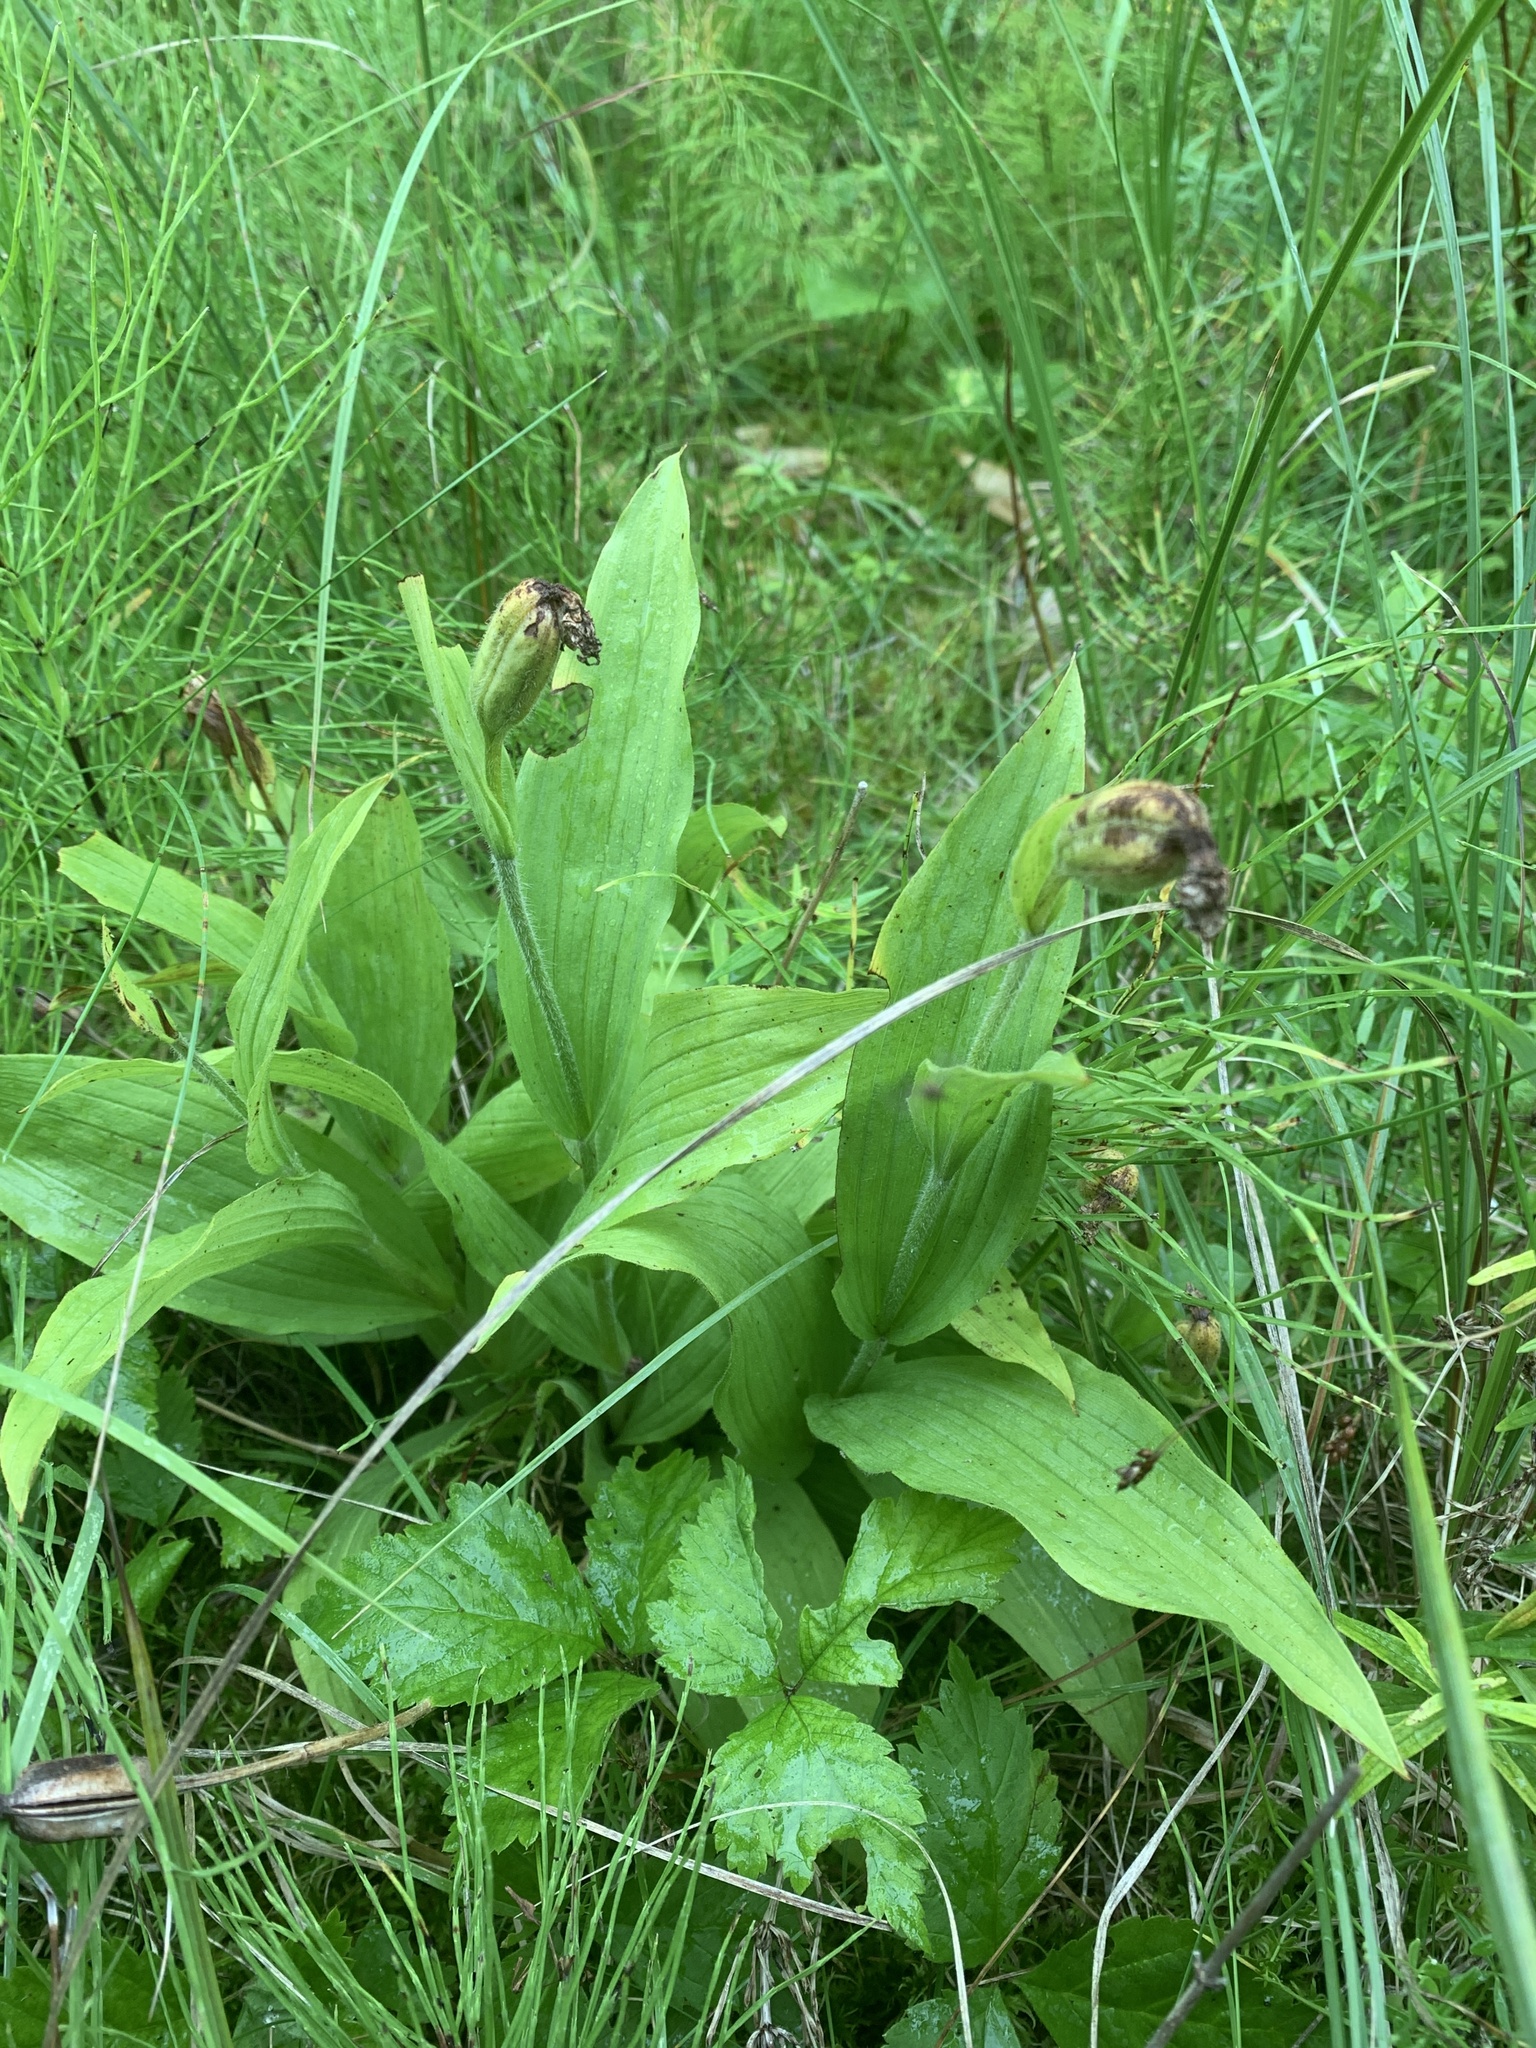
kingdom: Plantae
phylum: Tracheophyta
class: Liliopsida
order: Asparagales
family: Orchidaceae
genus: Cypripedium
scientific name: Cypripedium parviflorum
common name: American yellow lady's-slipper
